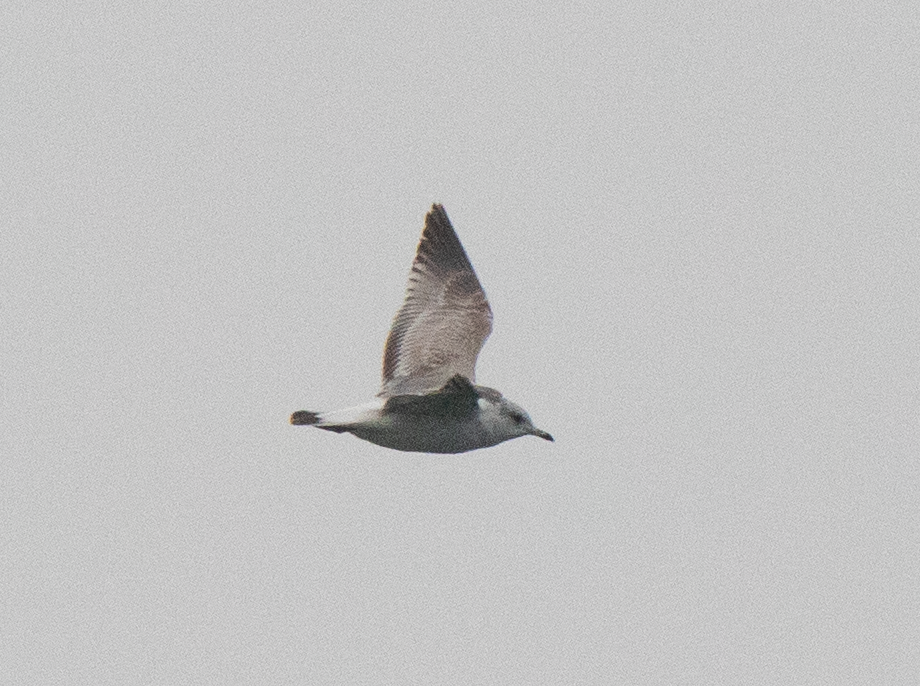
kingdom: Animalia
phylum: Chordata
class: Aves
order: Charadriiformes
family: Laridae
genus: Larus
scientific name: Larus canus
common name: Mew gull
